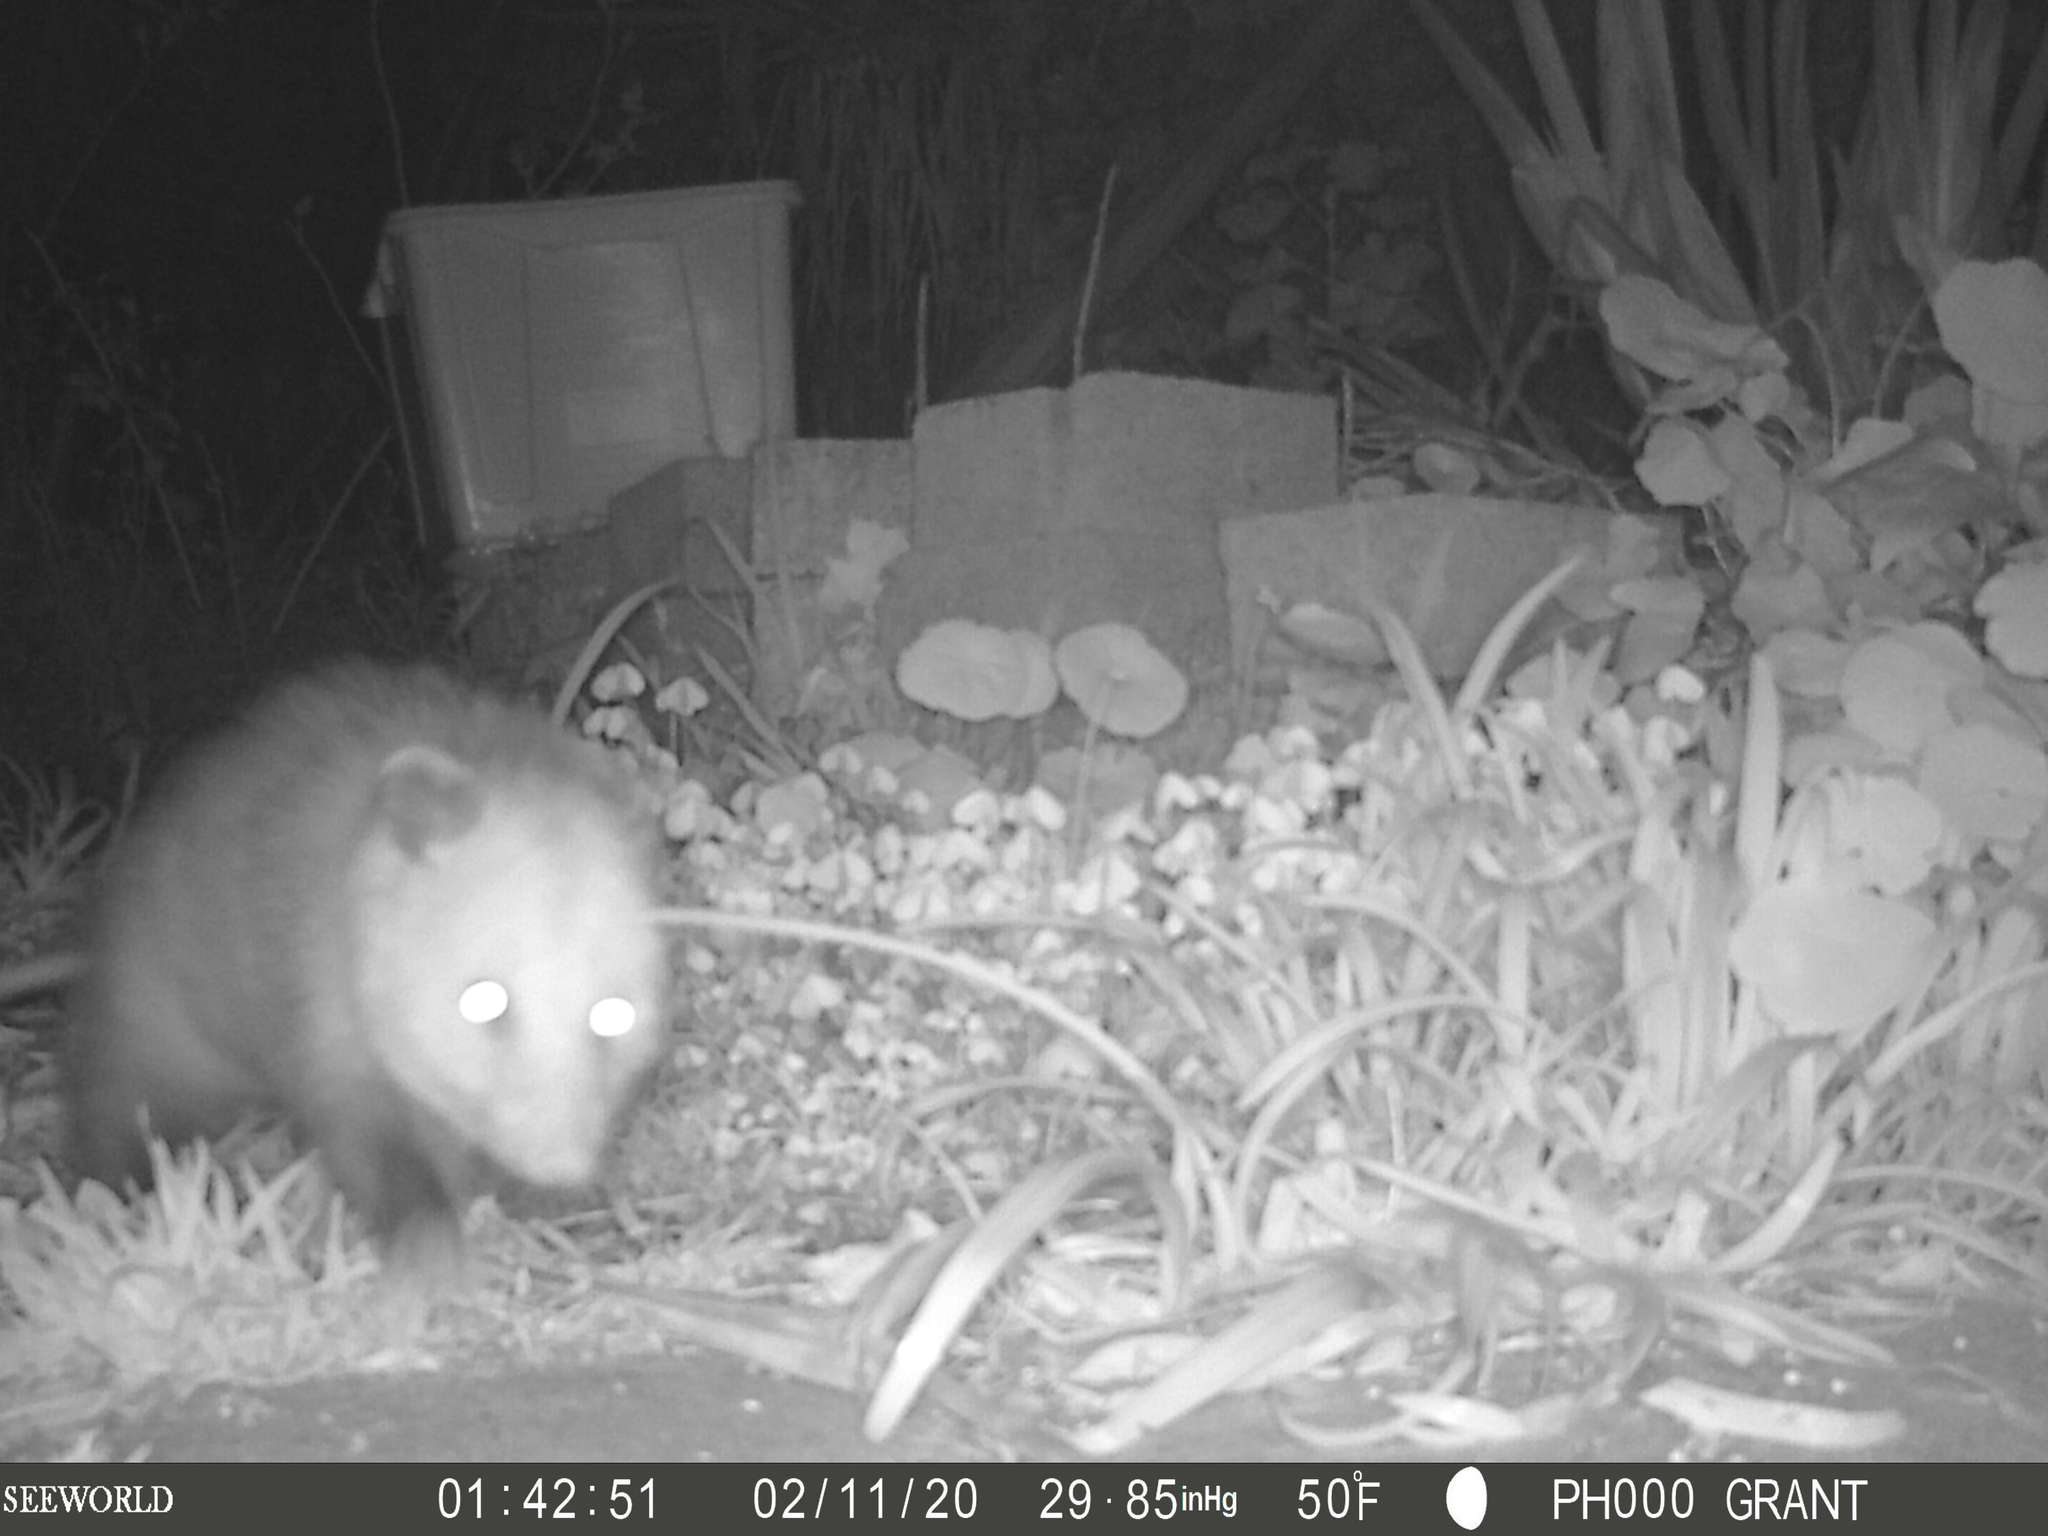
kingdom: Animalia
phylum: Chordata
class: Mammalia
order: Didelphimorphia
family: Didelphidae
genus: Didelphis
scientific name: Didelphis virginiana
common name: Virginia opossum
